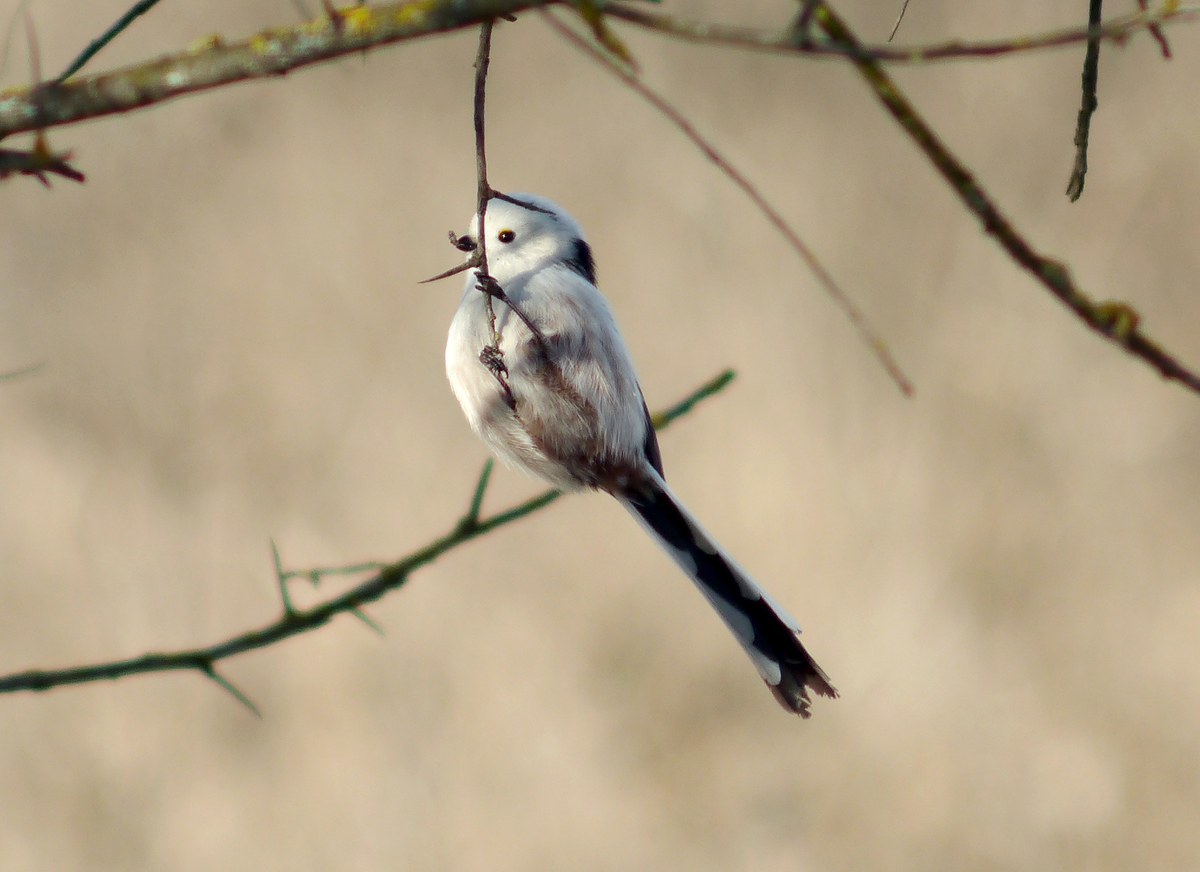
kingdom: Animalia
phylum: Chordata
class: Aves
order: Passeriformes
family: Aegithalidae
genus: Aegithalos
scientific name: Aegithalos caudatus
